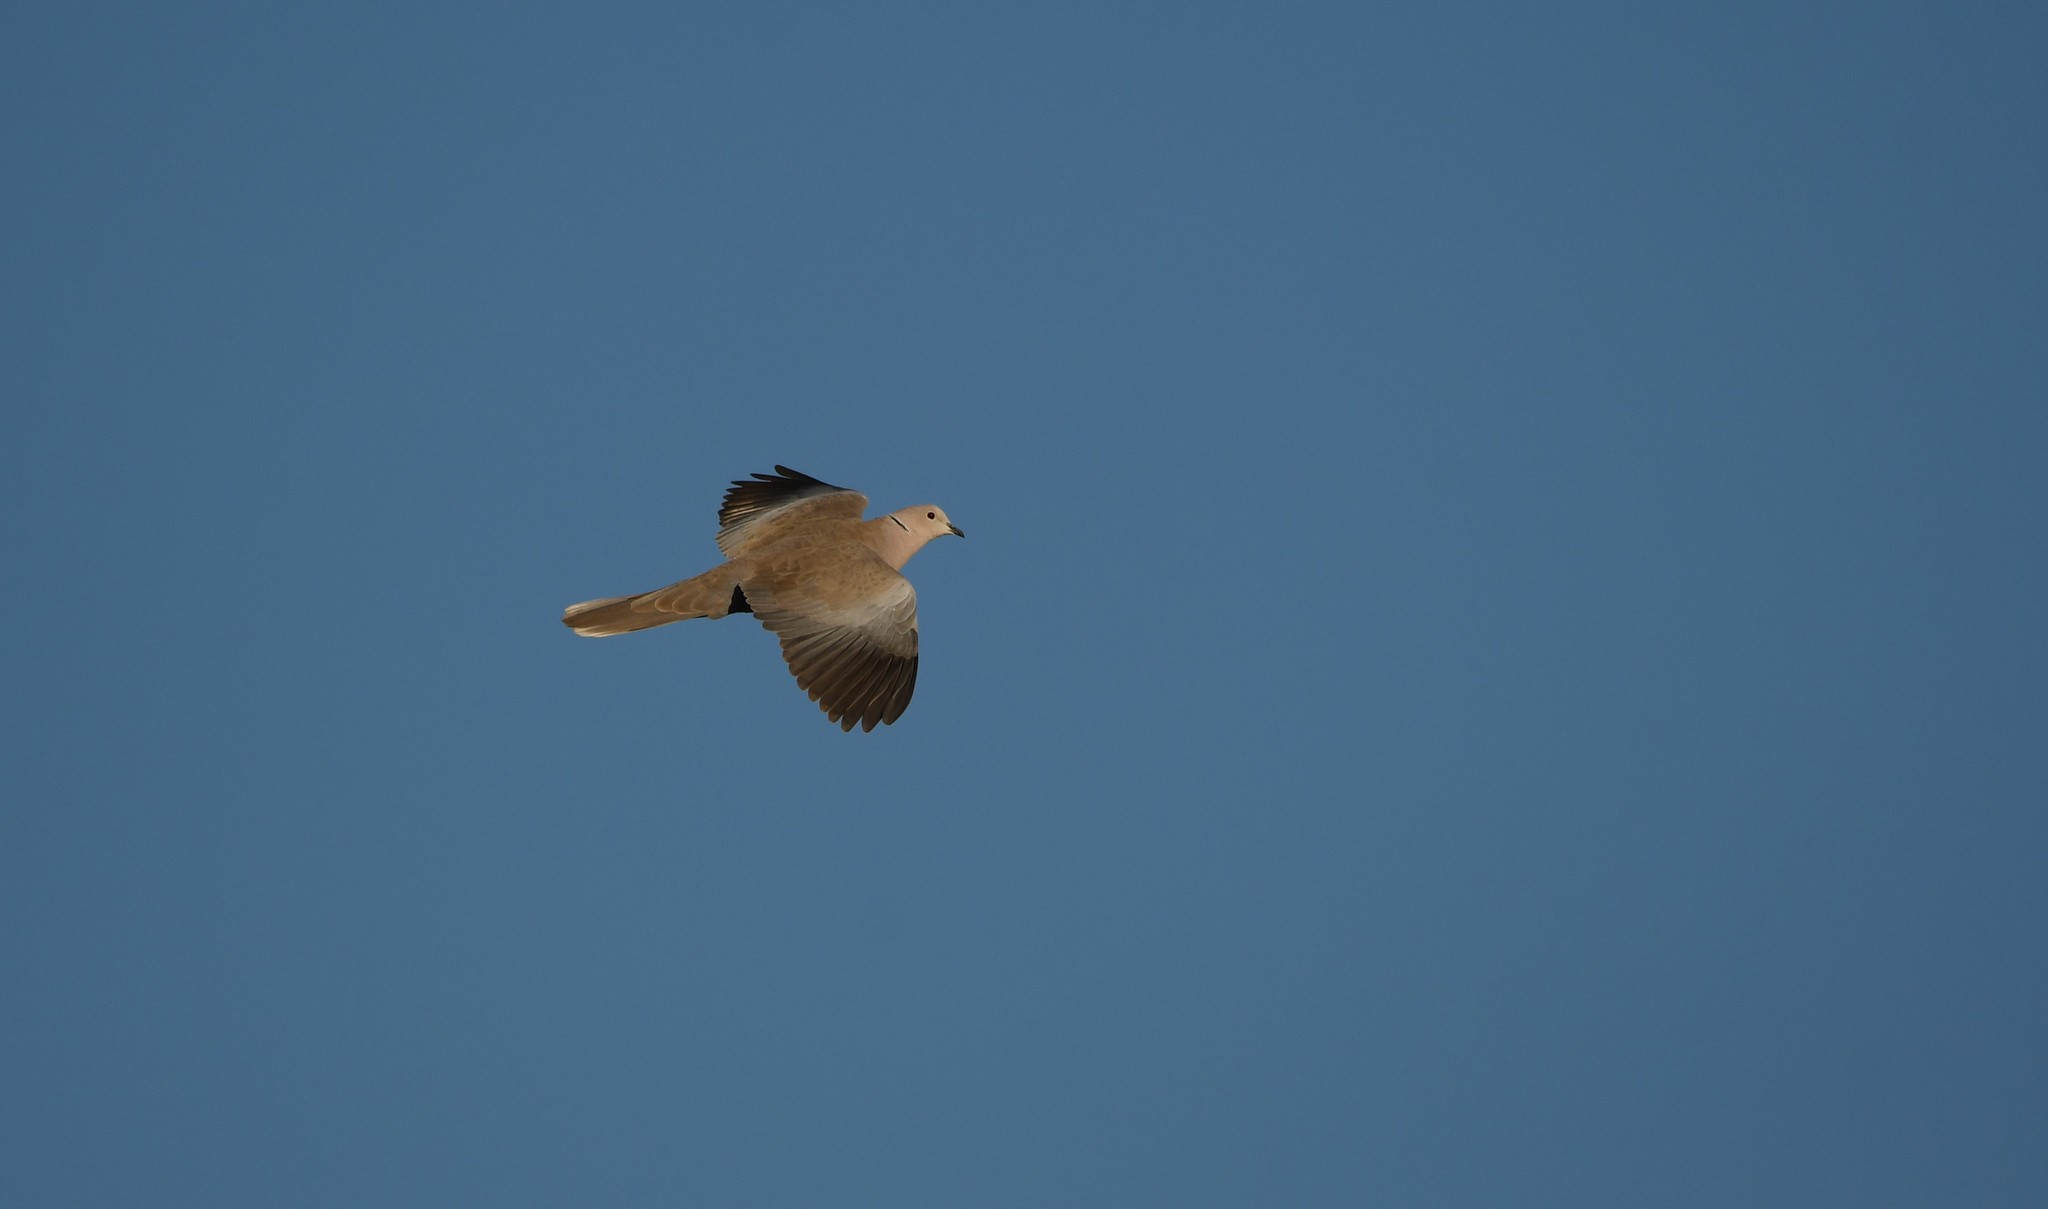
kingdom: Animalia
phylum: Chordata
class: Aves
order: Columbiformes
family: Columbidae
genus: Streptopelia
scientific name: Streptopelia decaocto
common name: Eurasian collared dove
